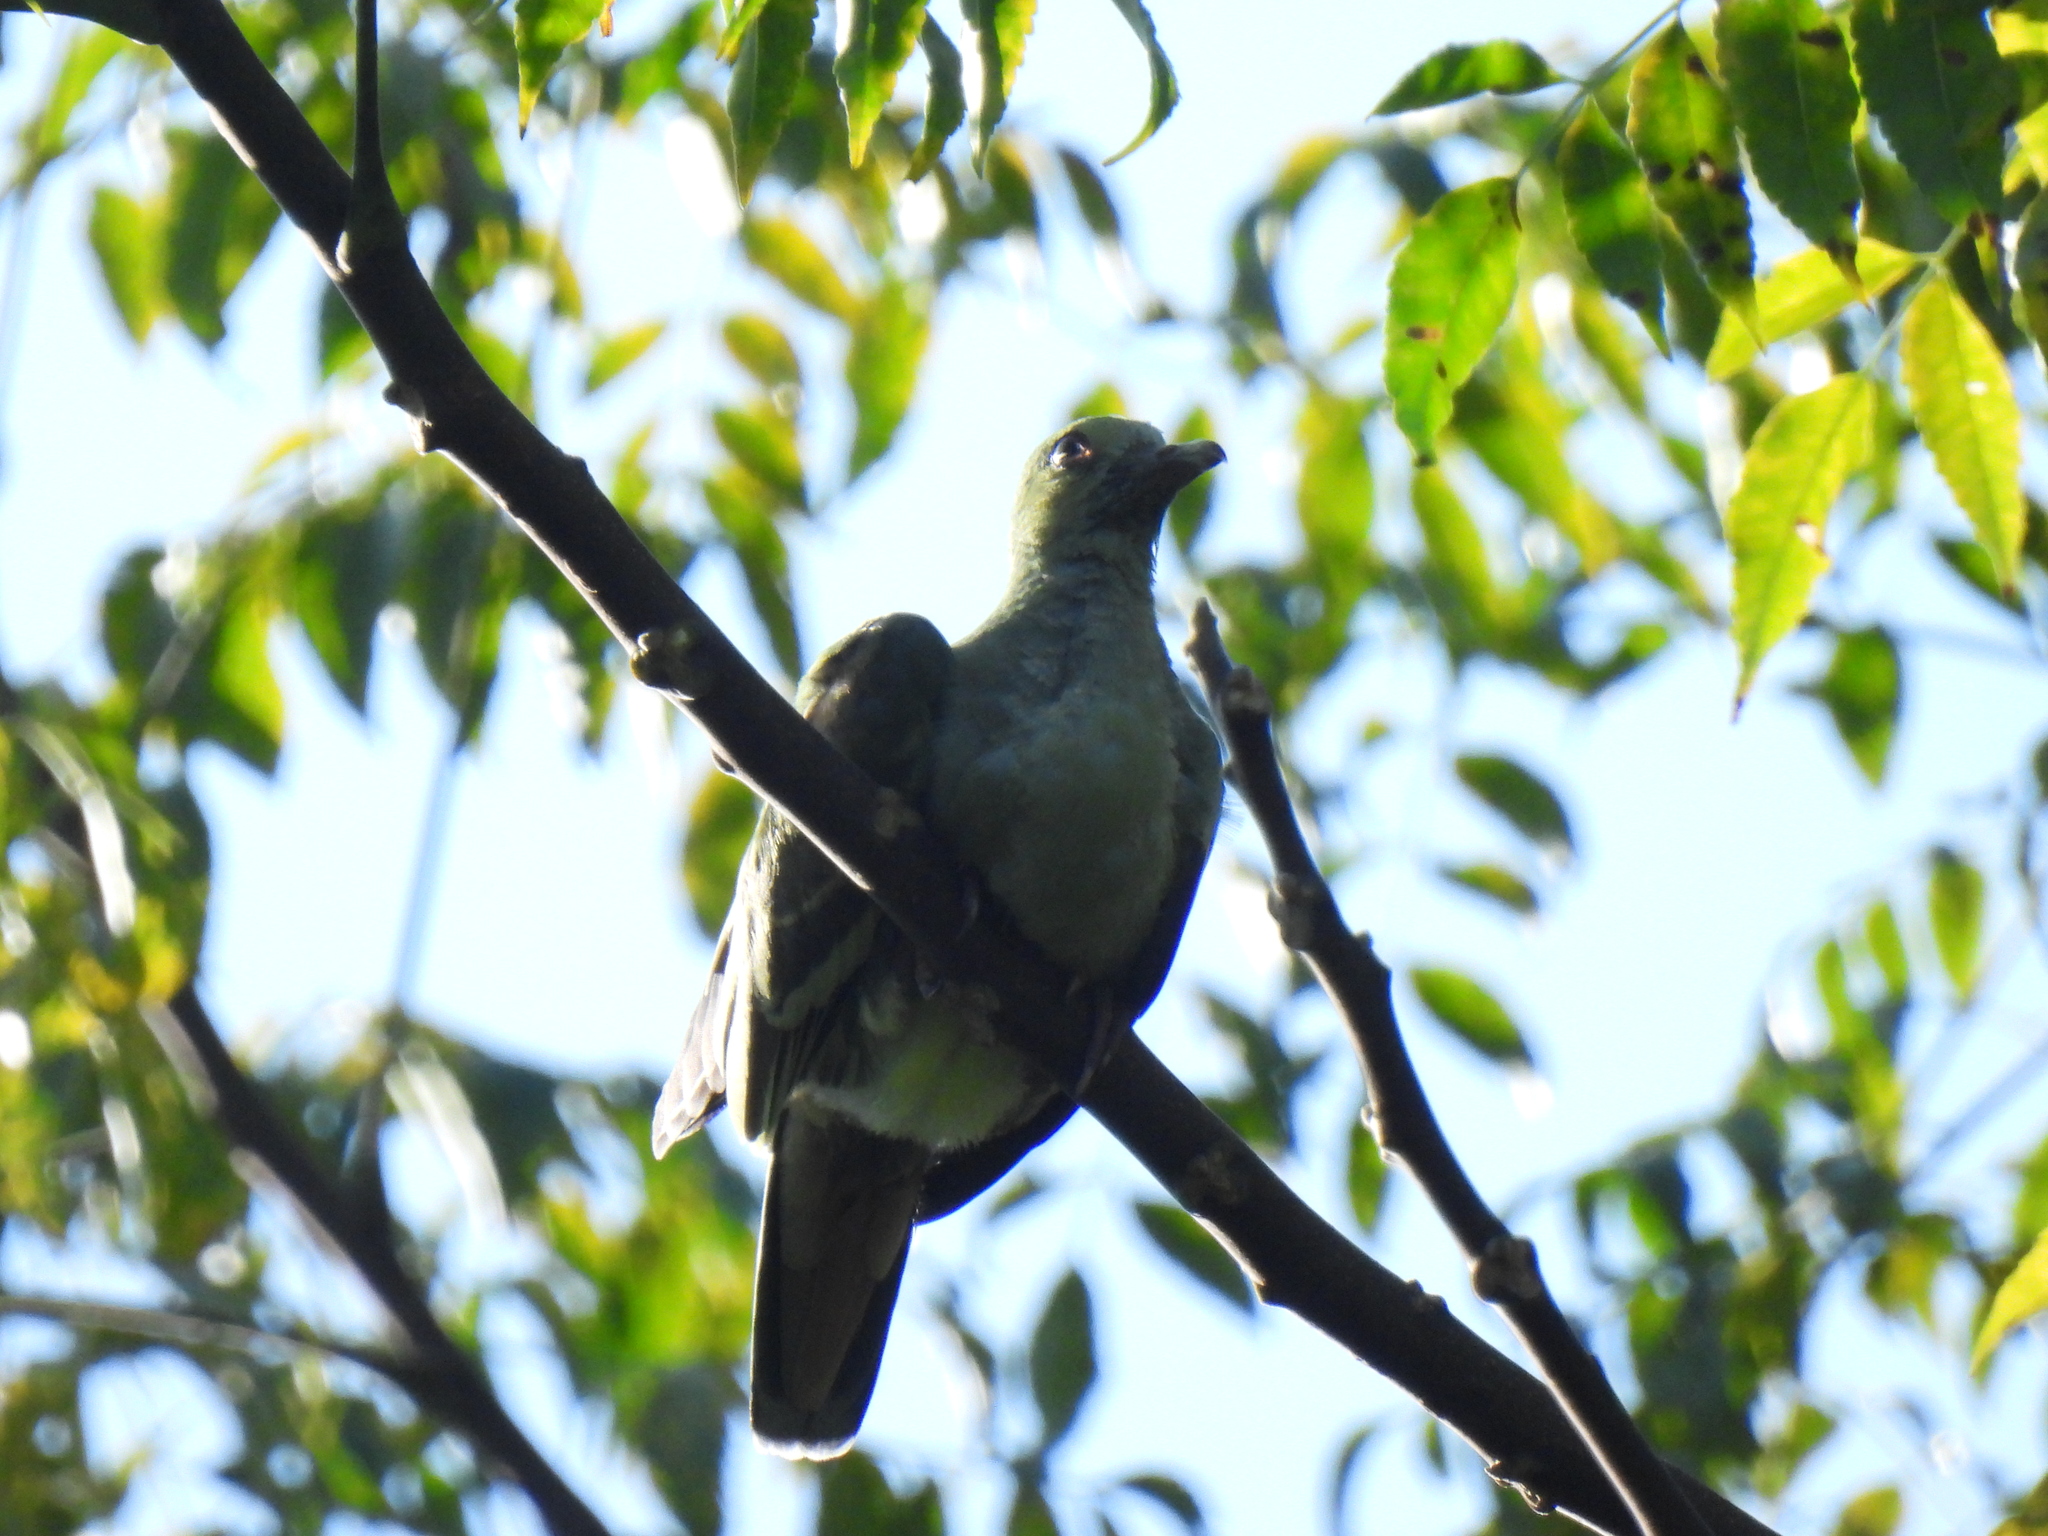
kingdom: Animalia
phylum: Chordata
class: Aves
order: Columbiformes
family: Columbidae
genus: Treron
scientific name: Treron vernans
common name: Pink-necked green pigeon
